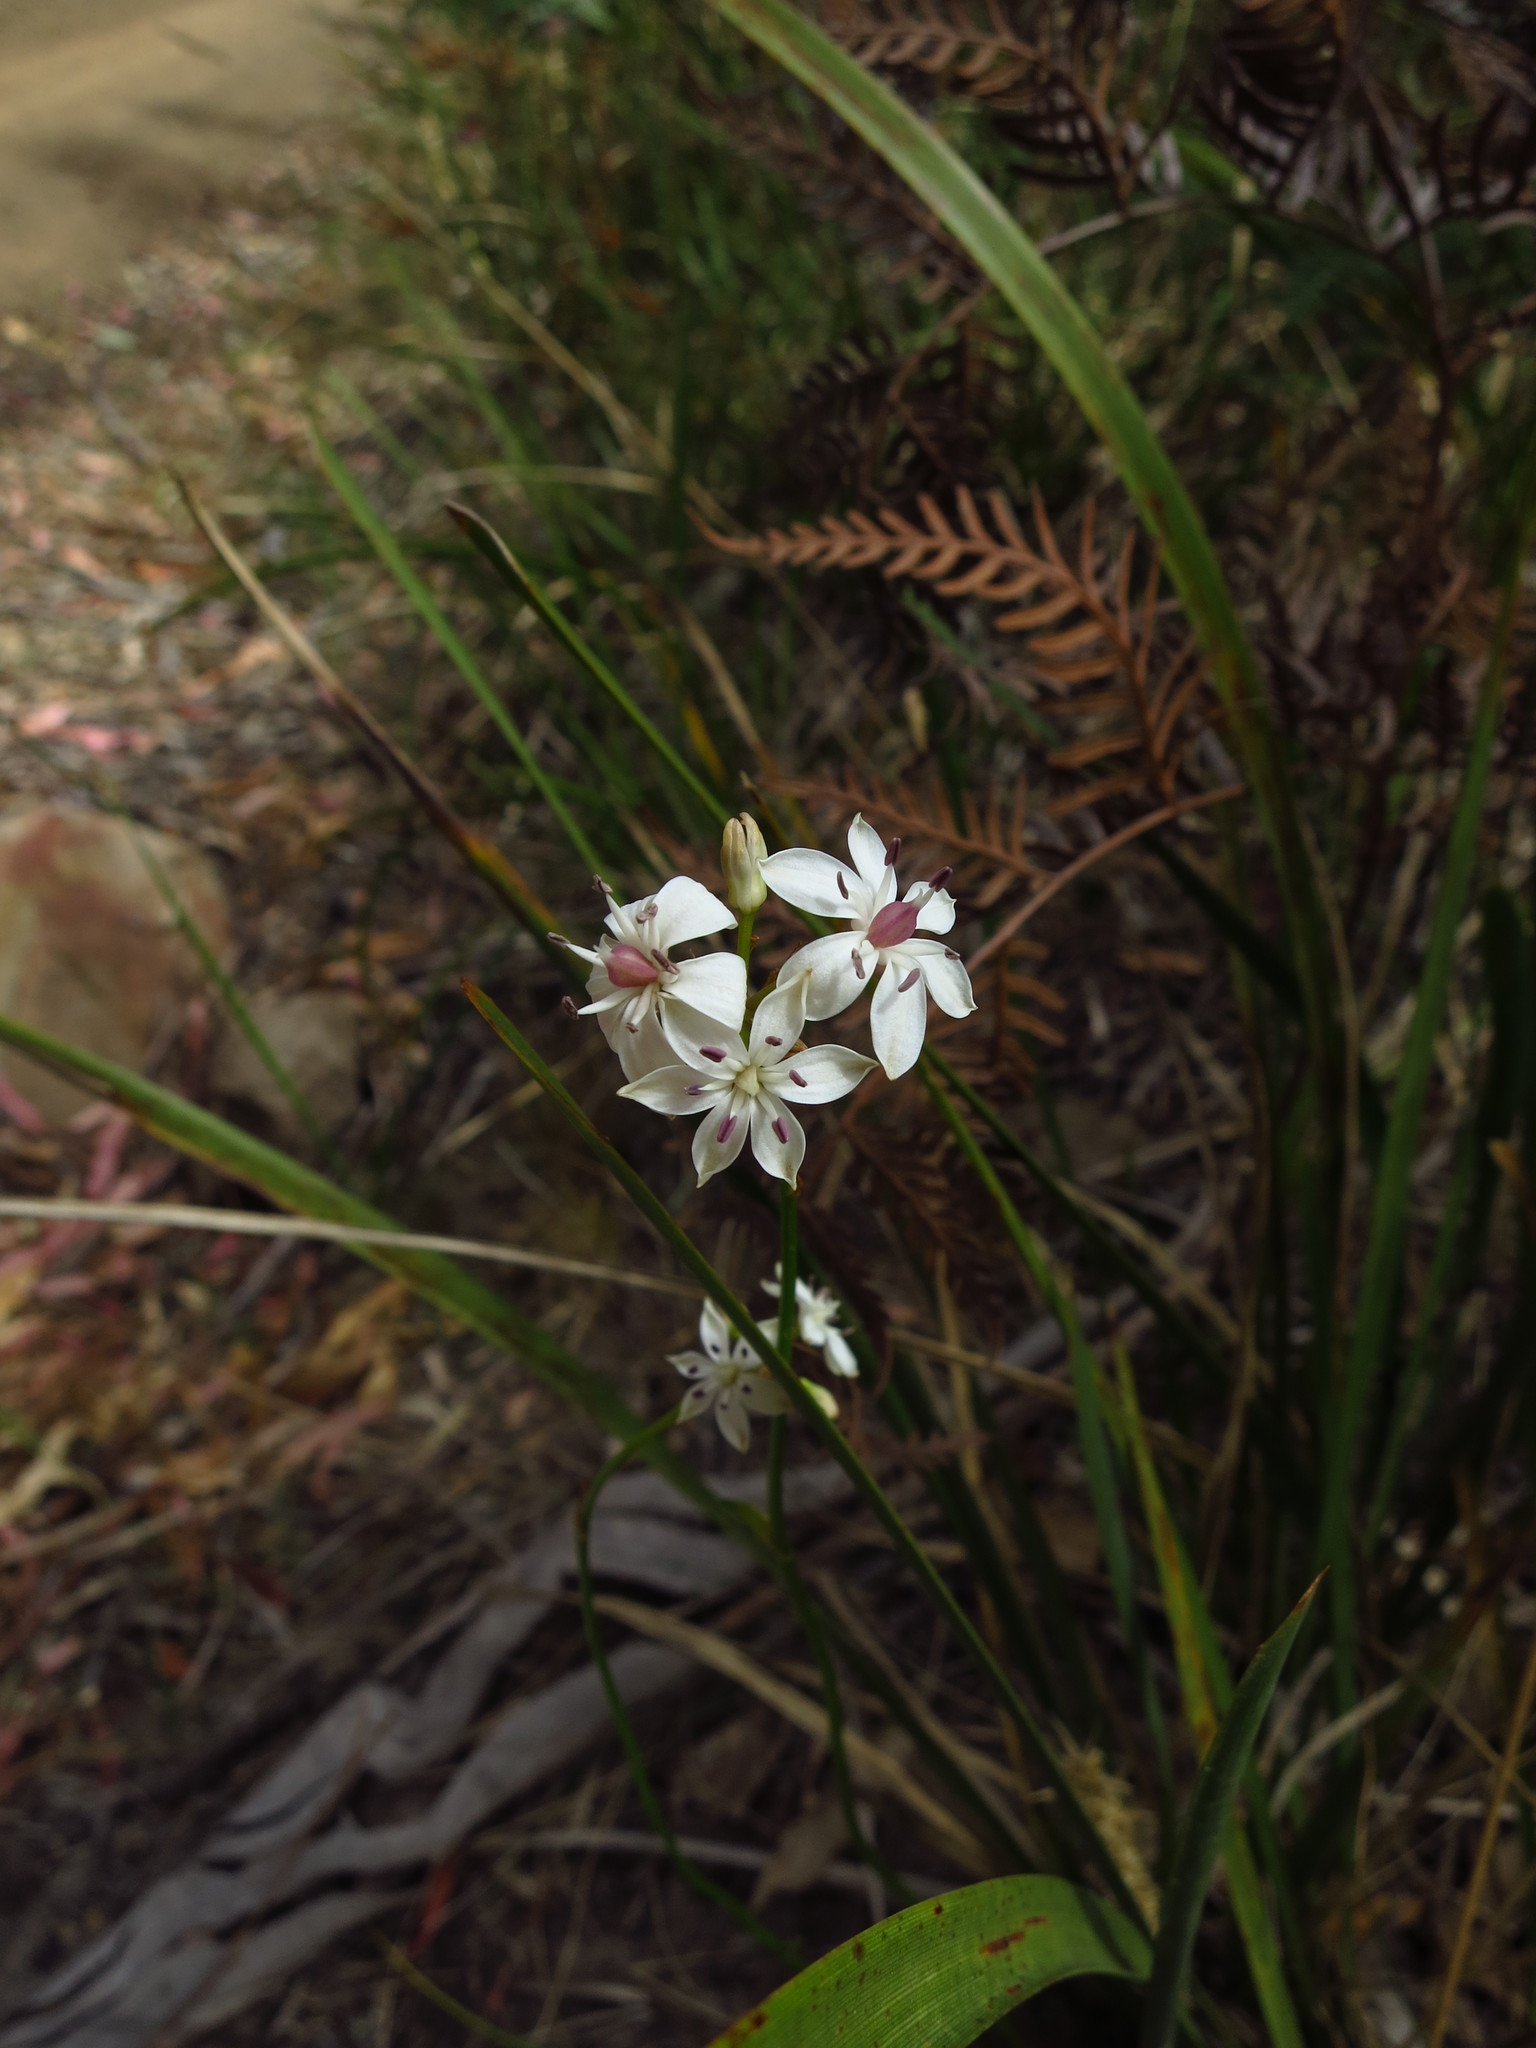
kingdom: Plantae
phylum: Tracheophyta
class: Liliopsida
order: Liliales
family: Colchicaceae
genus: Burchardia
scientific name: Burchardia umbellata
